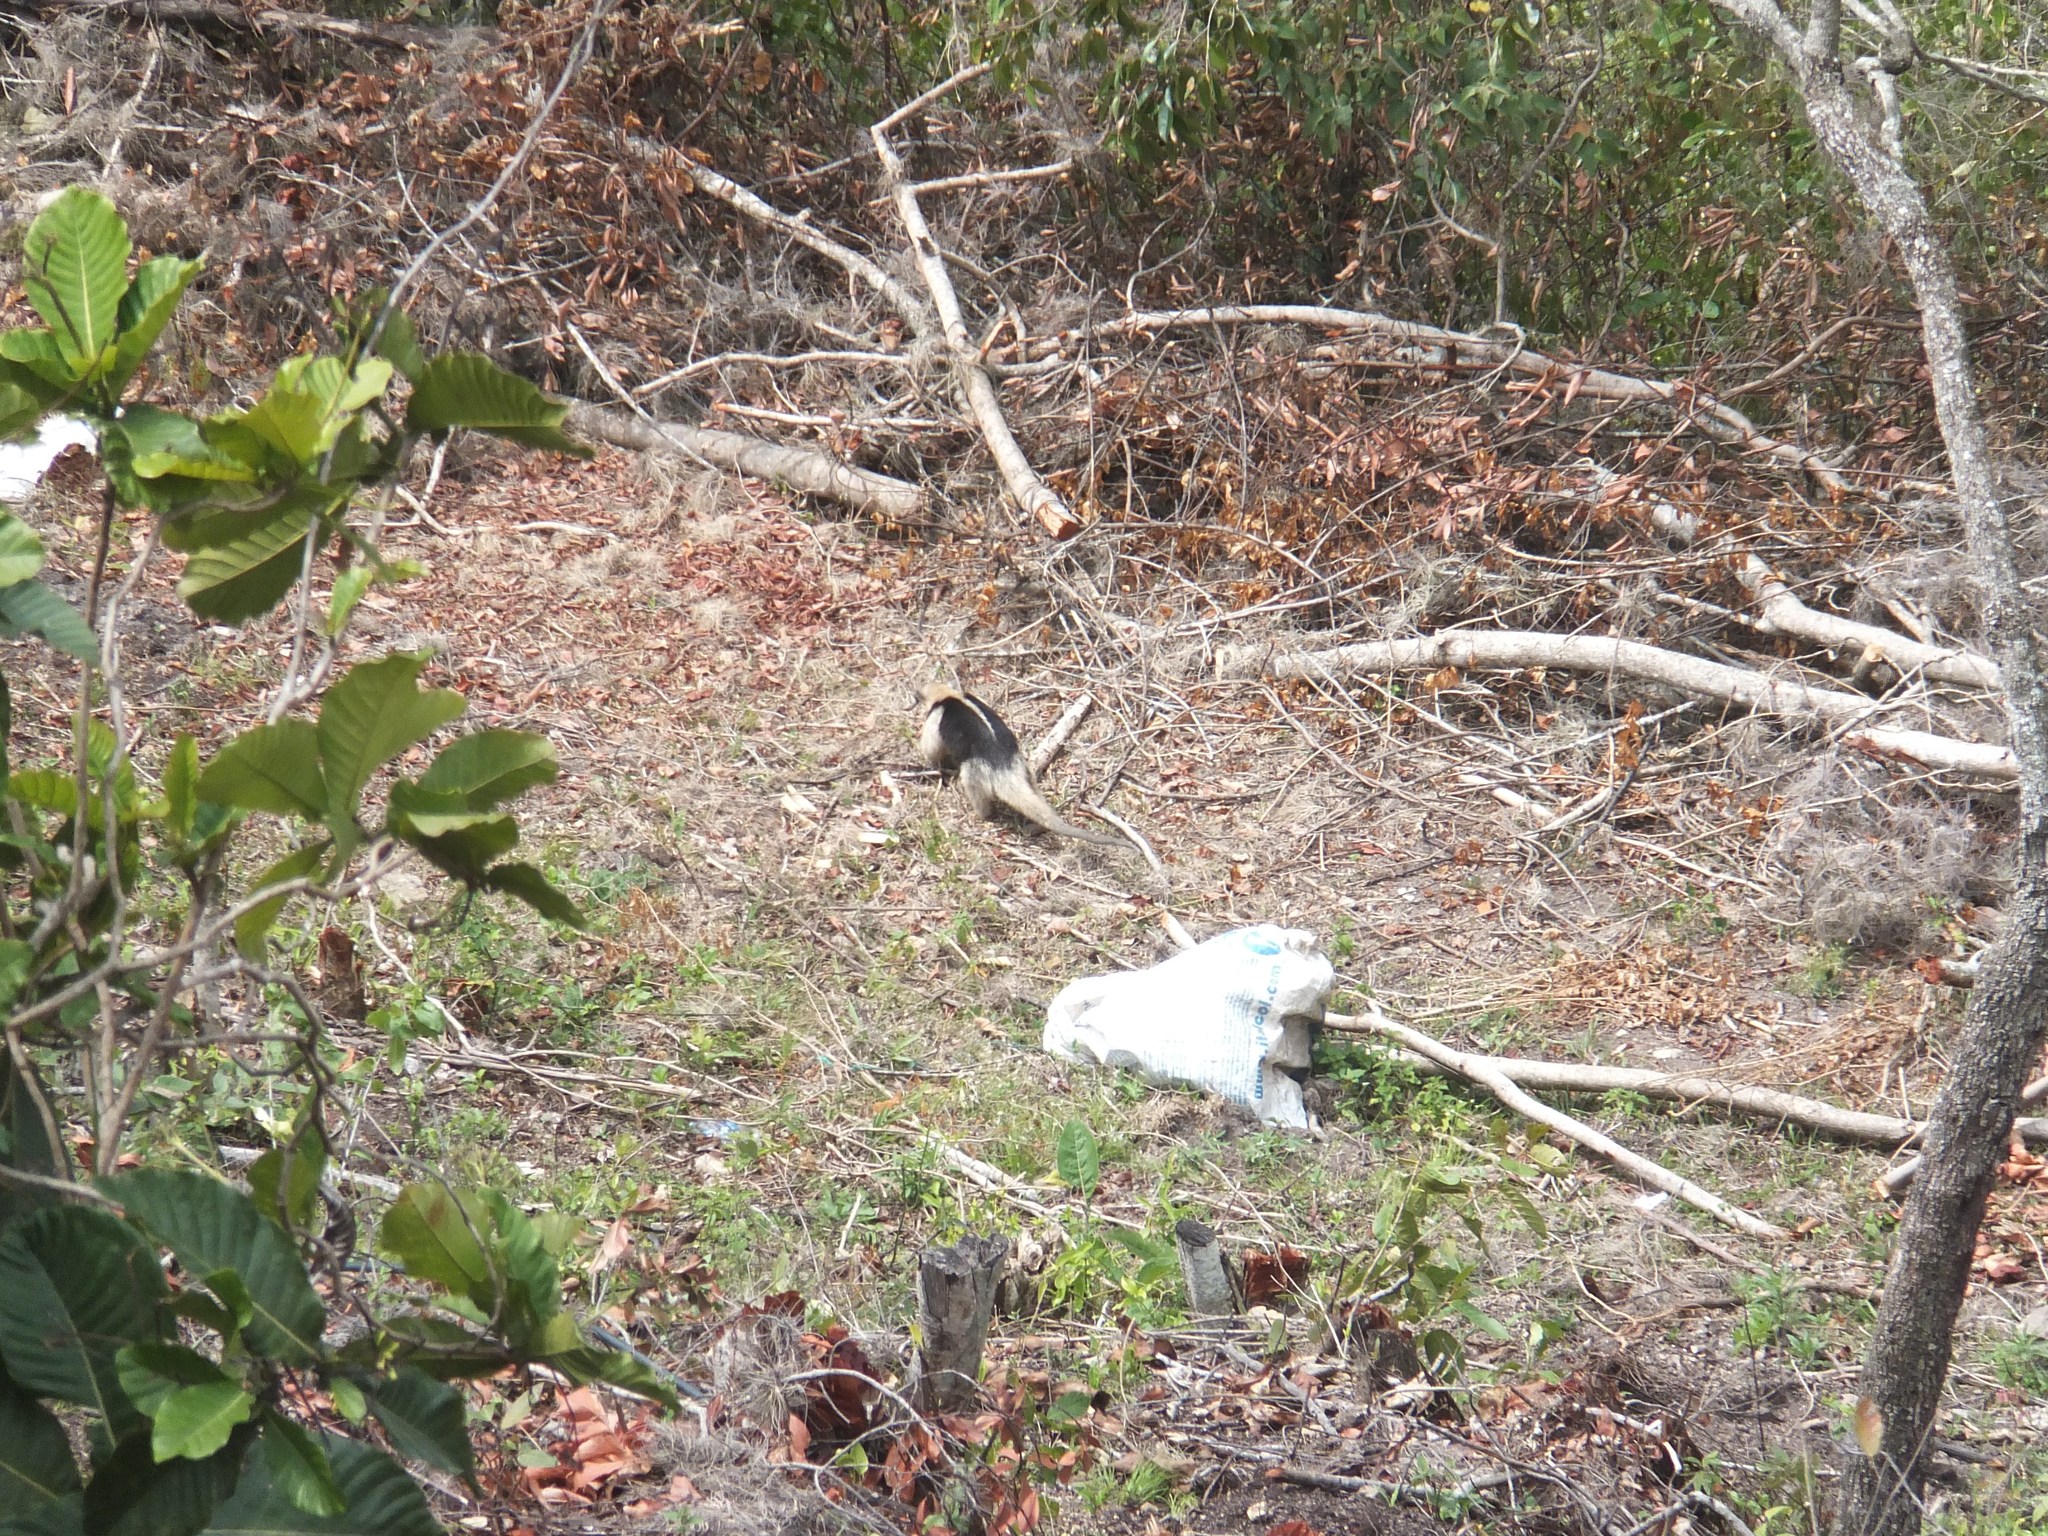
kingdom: Animalia
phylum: Chordata
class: Mammalia
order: Pilosa
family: Myrmecophagidae
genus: Tamandua
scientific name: Tamandua mexicana
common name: Northern tamandua
